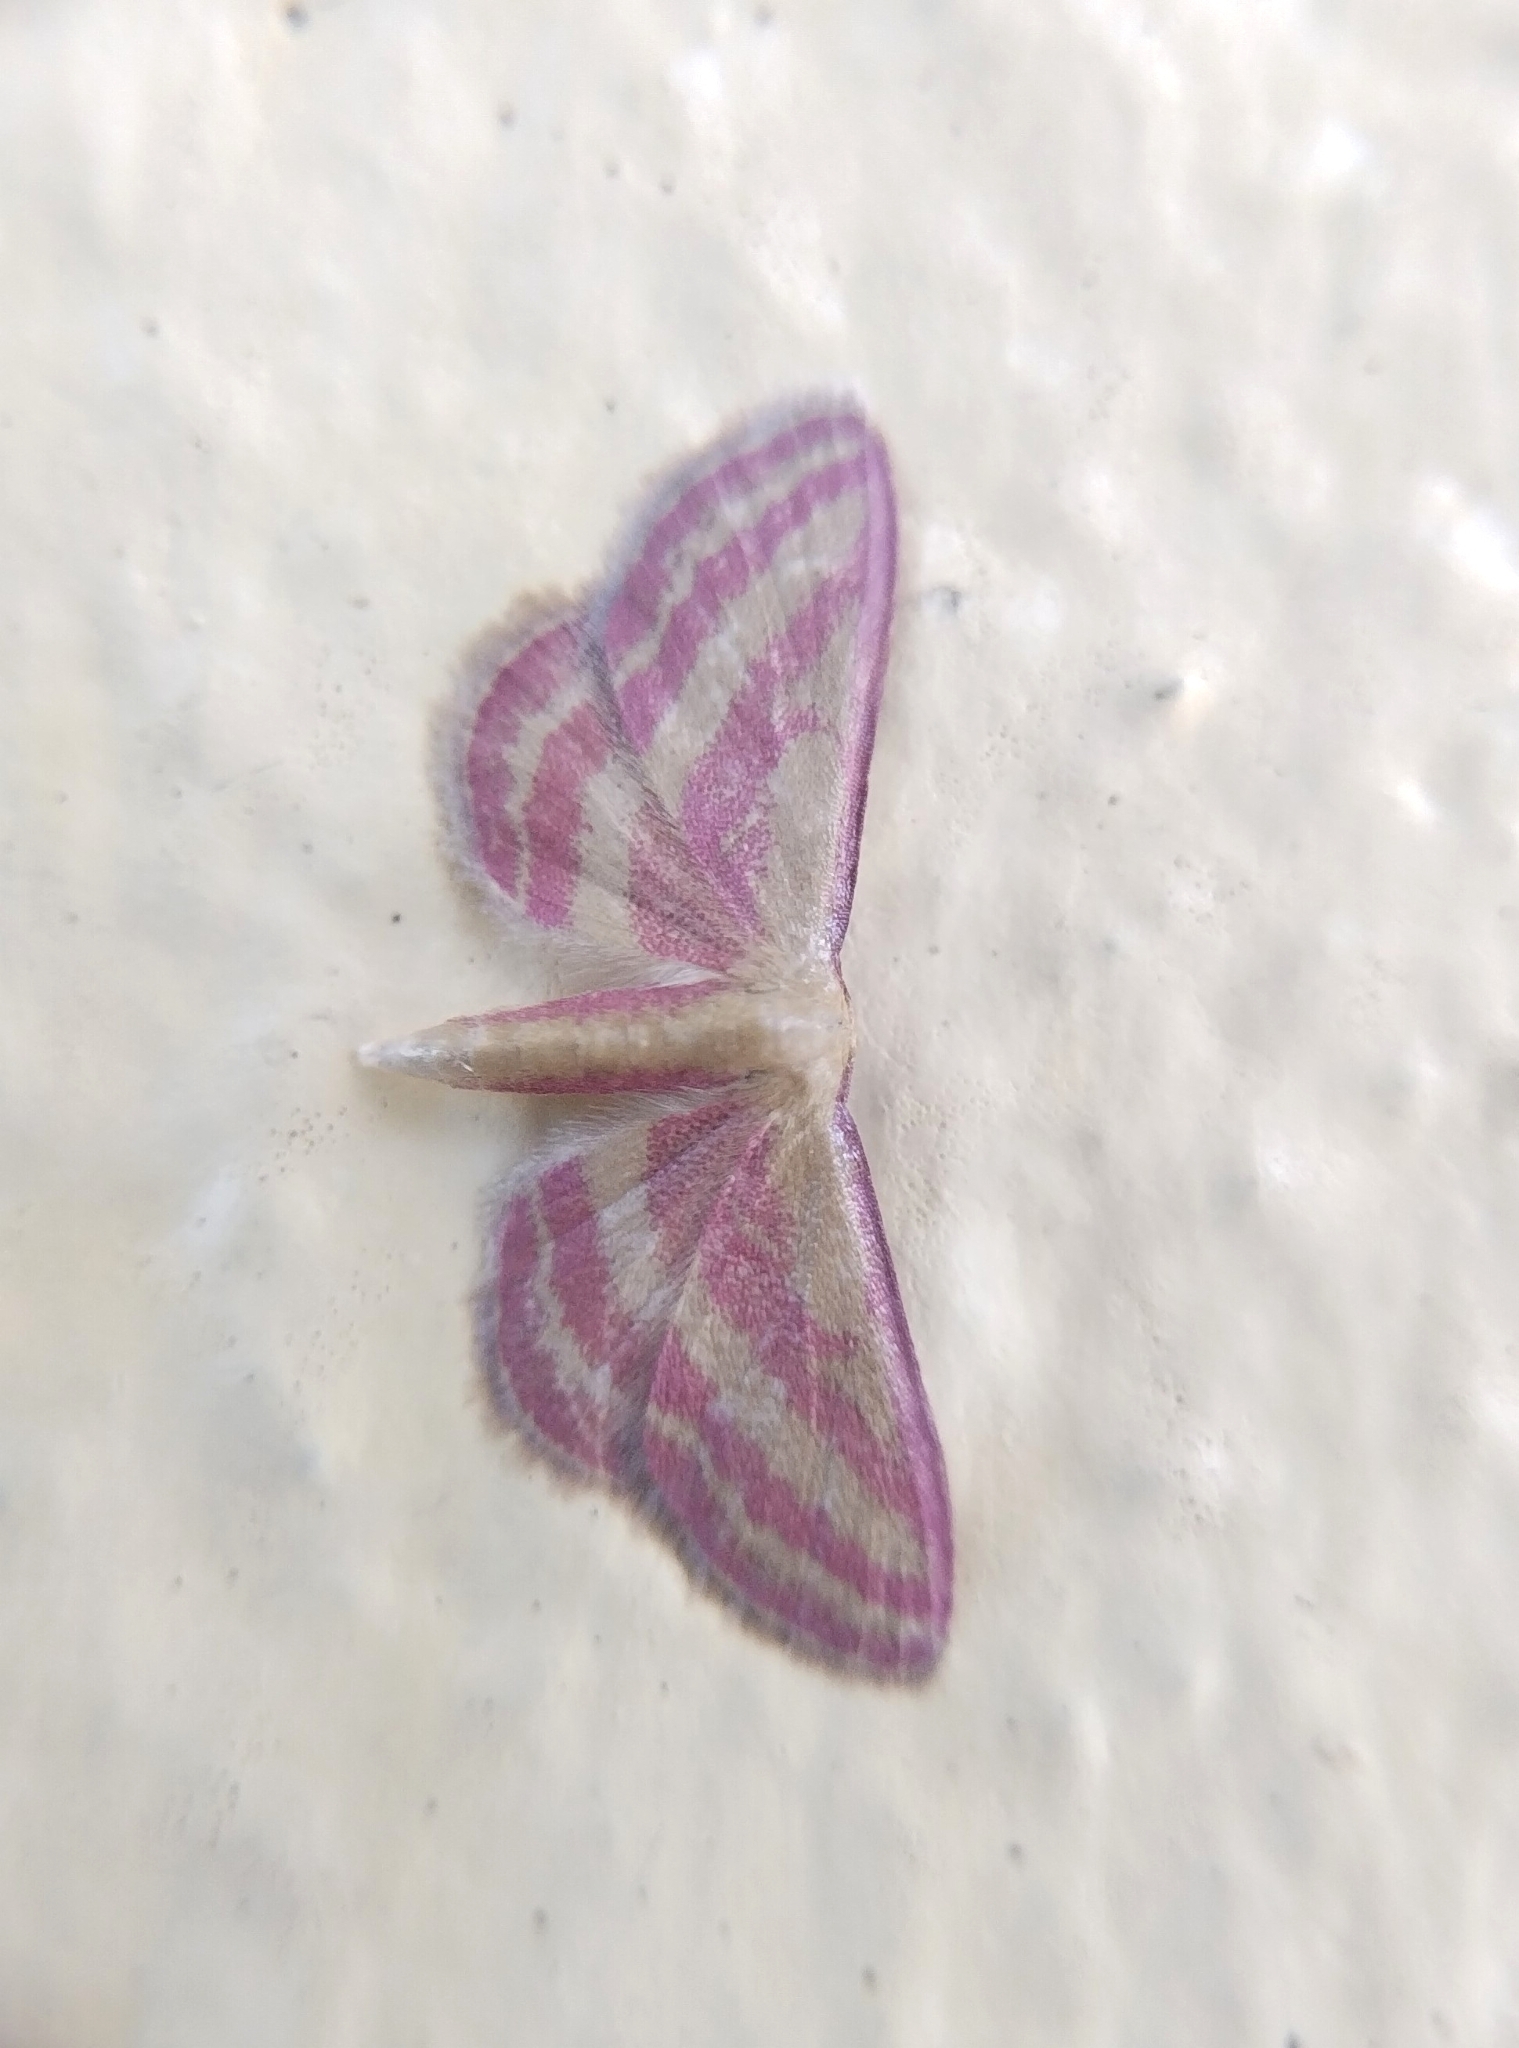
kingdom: Animalia
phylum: Arthropoda
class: Insecta
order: Lepidoptera
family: Geometridae
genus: Leptostales
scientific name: Leptostales laevitaria
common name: Raspberry wave moth
